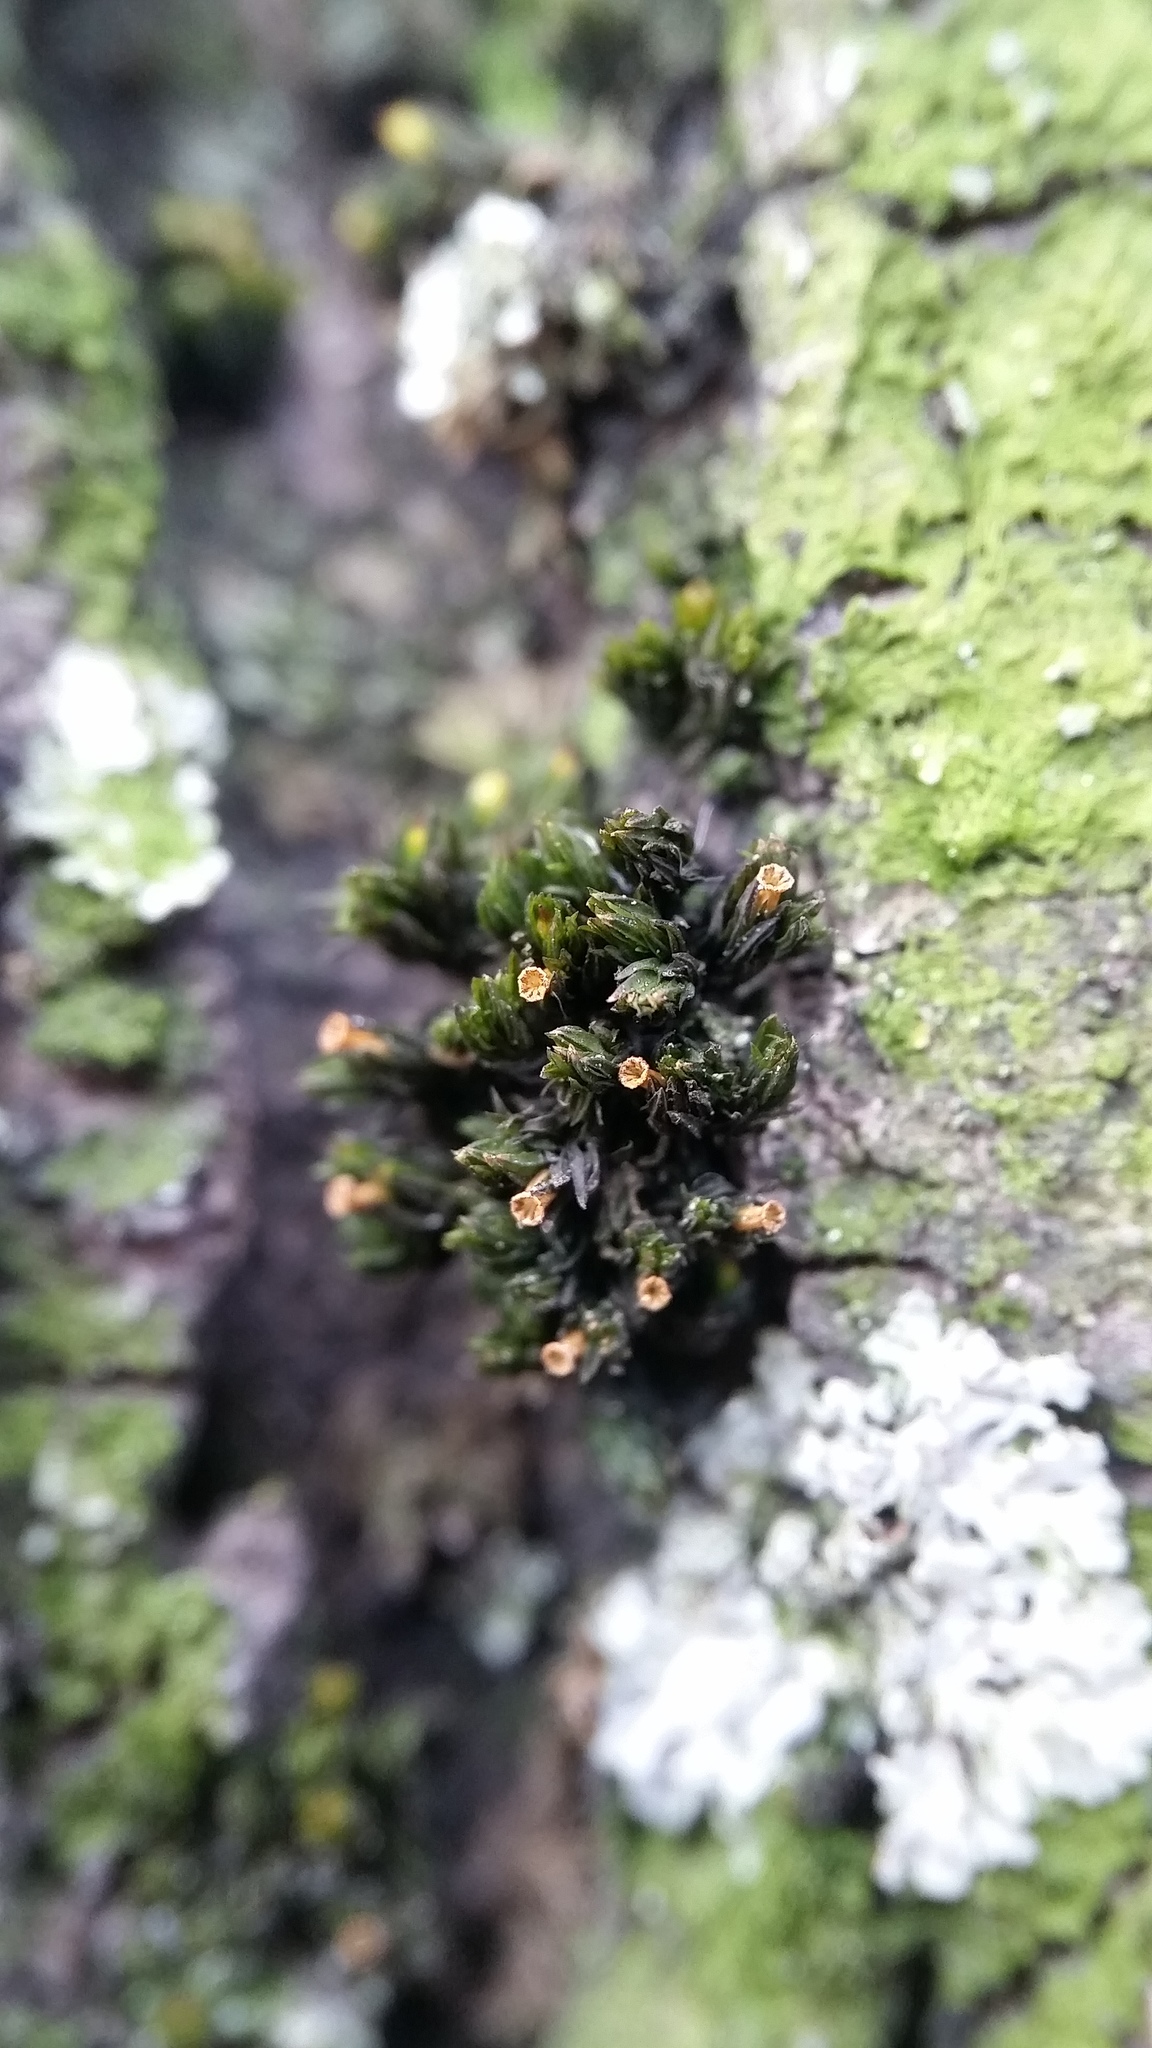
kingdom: Plantae
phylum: Bryophyta
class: Bryopsida
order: Orthotrichales
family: Orthotrichaceae
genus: Orthotrichum
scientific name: Orthotrichum stellatum
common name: Starlike bristle moss
